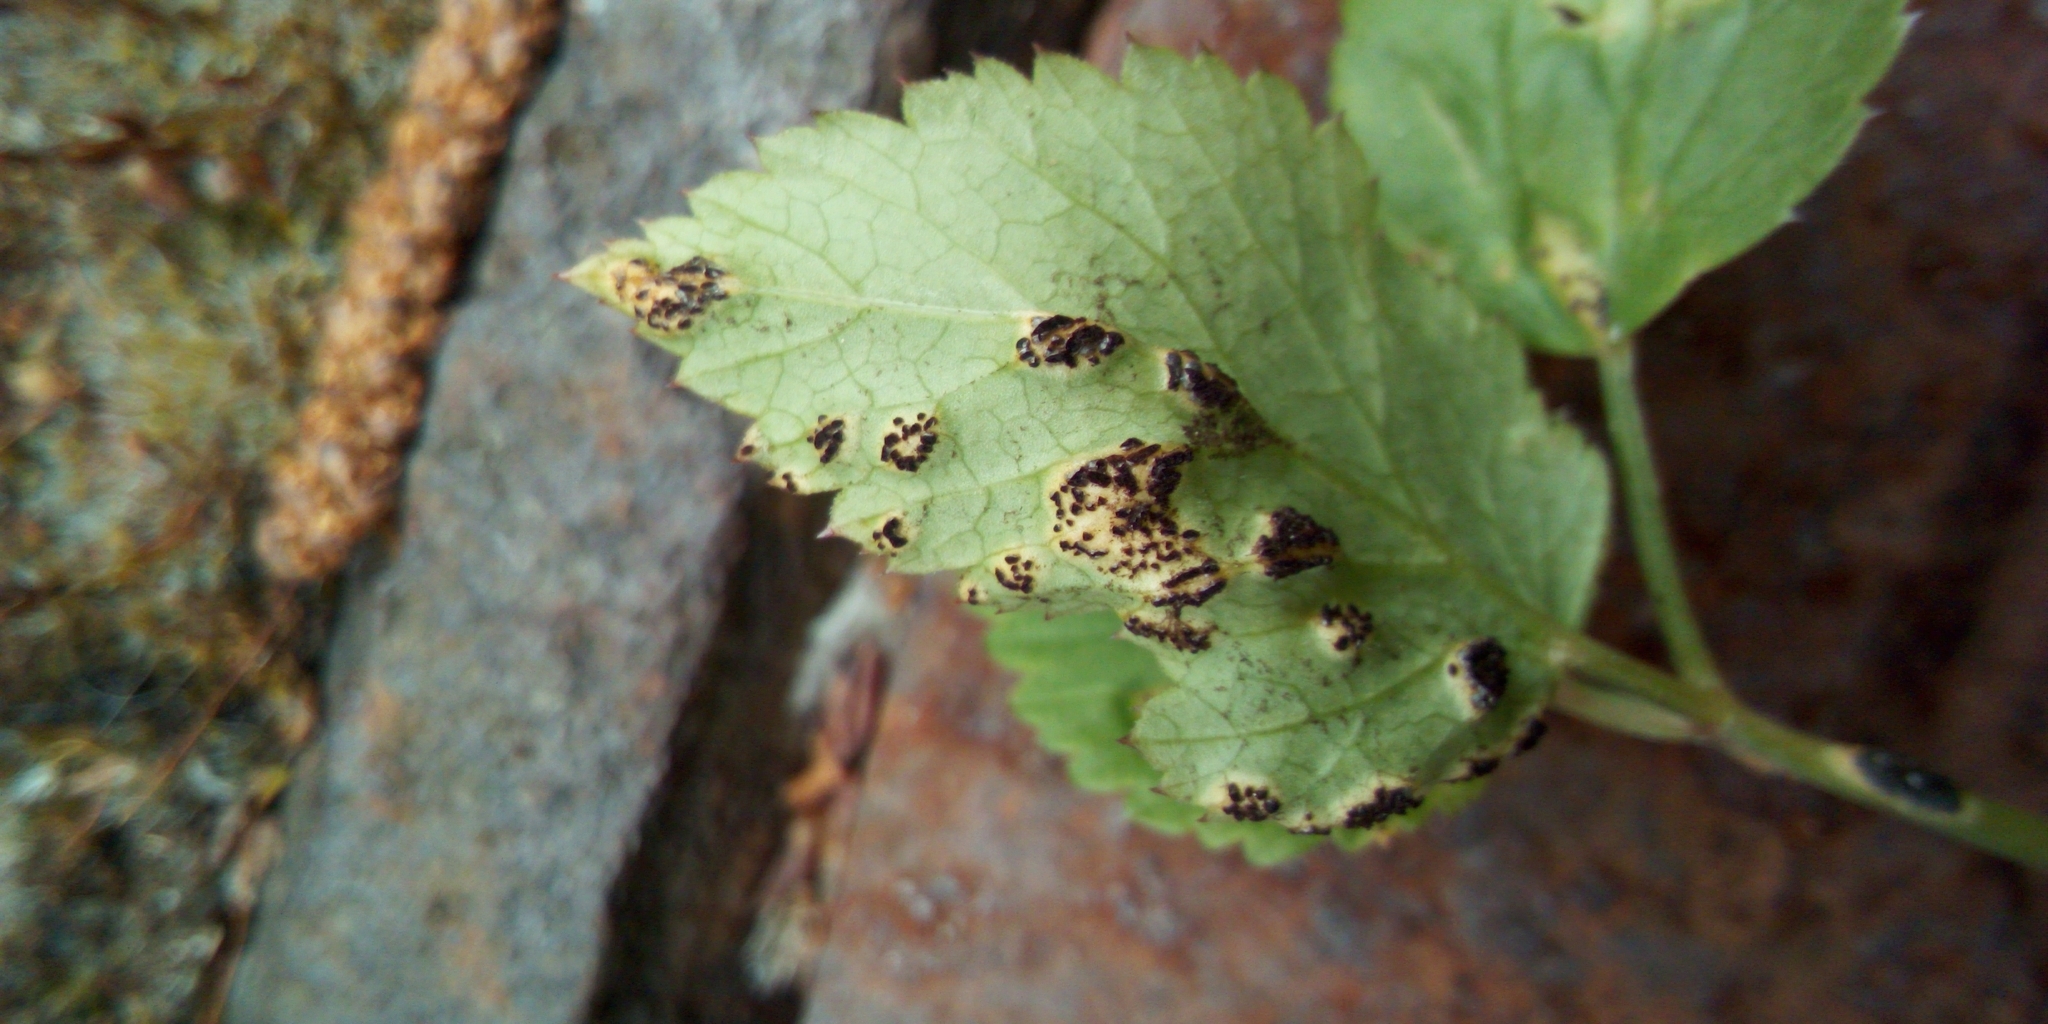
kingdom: Fungi
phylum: Basidiomycota
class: Pucciniomycetes
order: Pucciniales
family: Pucciniaceae
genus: Puccinia
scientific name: Puccinia aegopodii
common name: Ground elder rust
